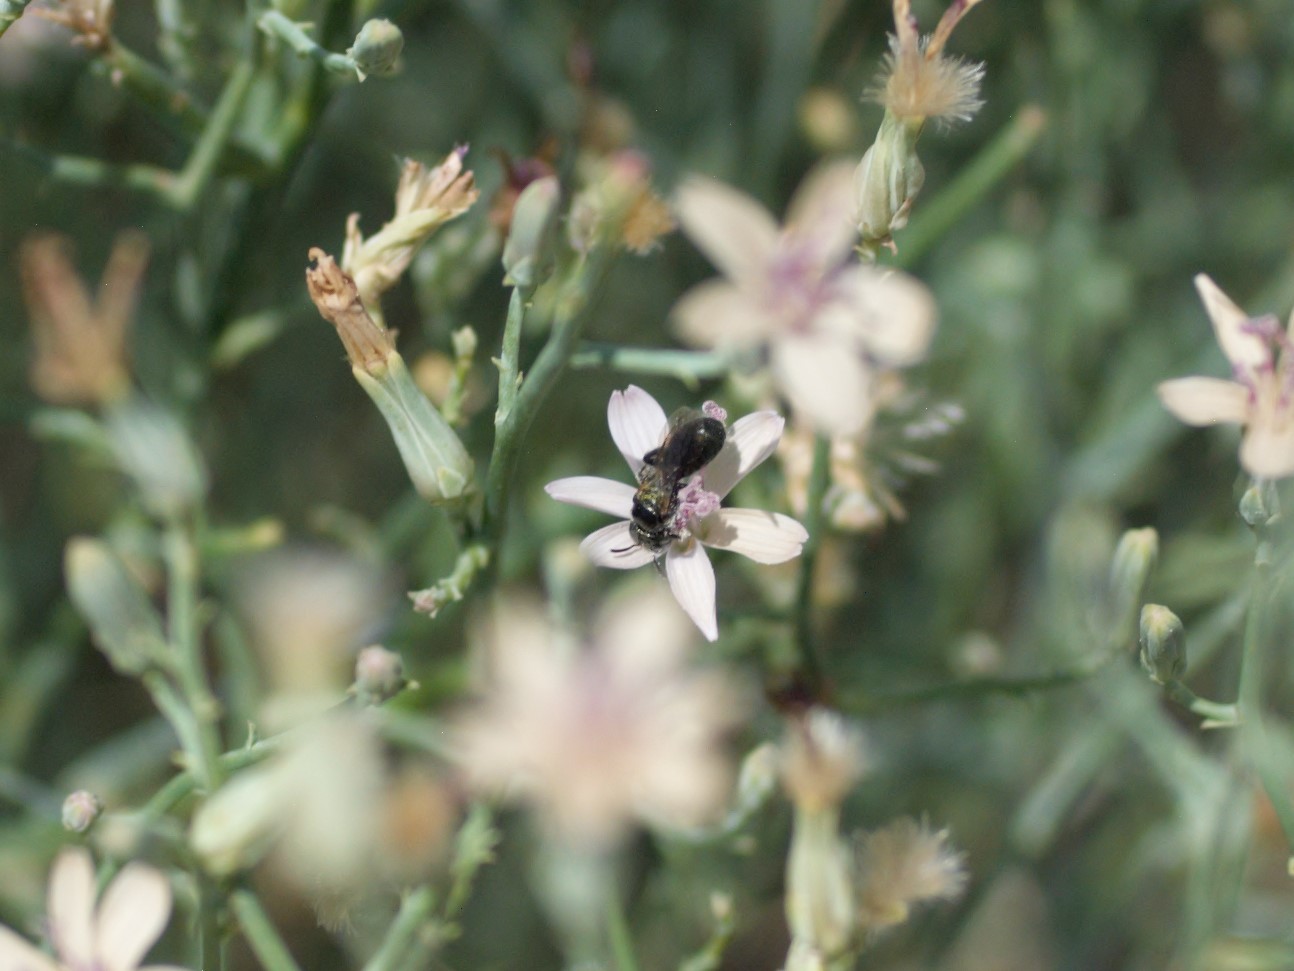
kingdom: Animalia
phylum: Arthropoda
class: Insecta
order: Hymenoptera
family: Apidae
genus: Zadontomerus
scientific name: Zadontomerus
